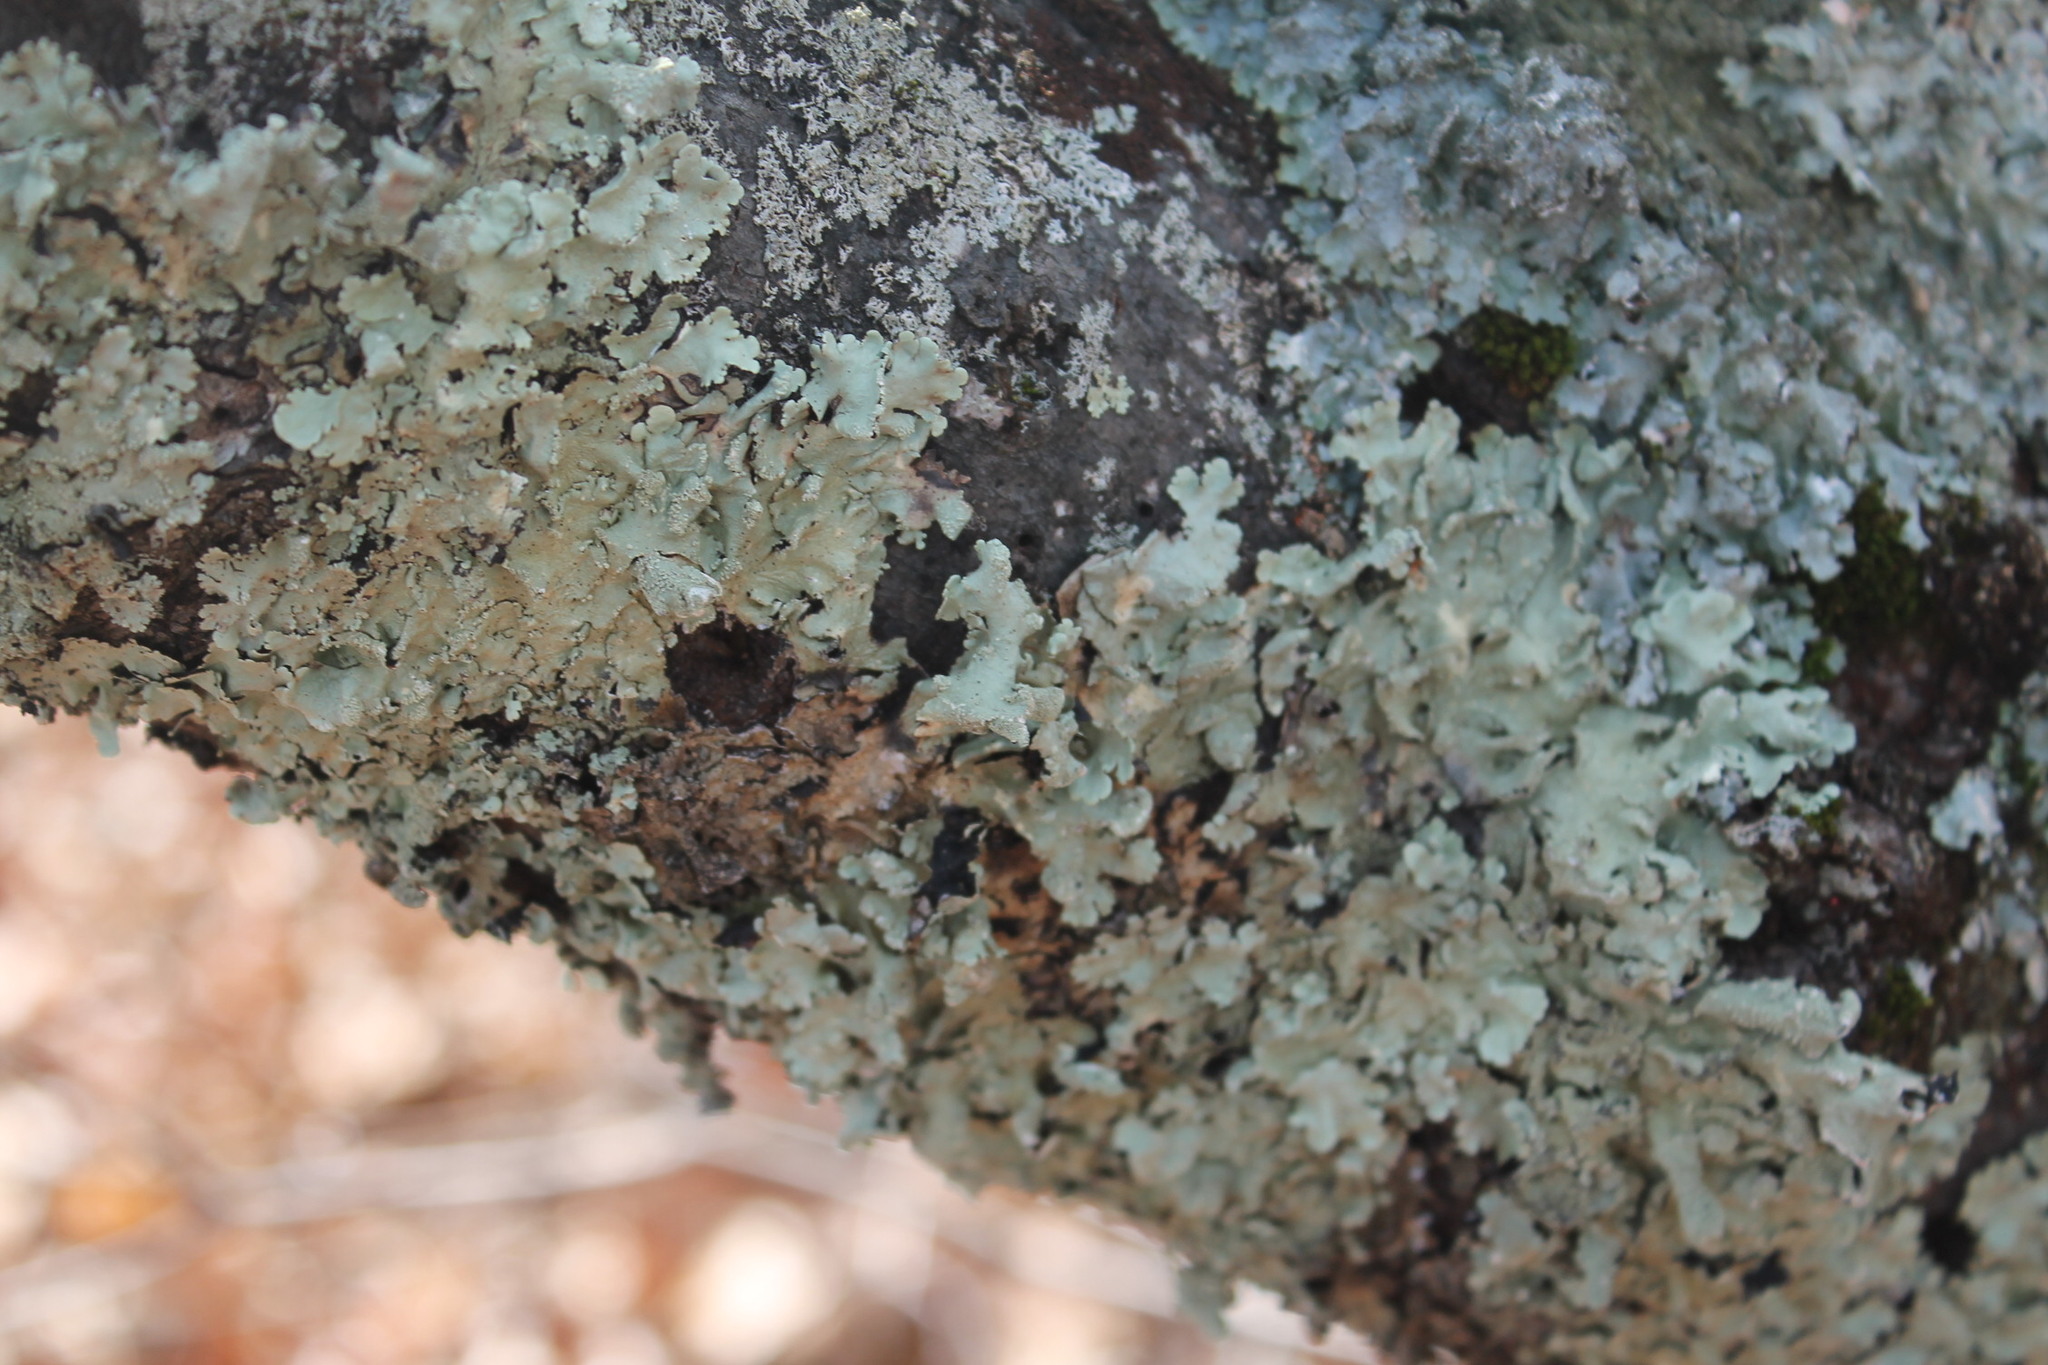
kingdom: Fungi
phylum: Ascomycota
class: Lecanoromycetes
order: Lecanorales
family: Parmeliaceae
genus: Flavoparmelia
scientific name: Flavoparmelia caperata
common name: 40-mile per hour lichen
